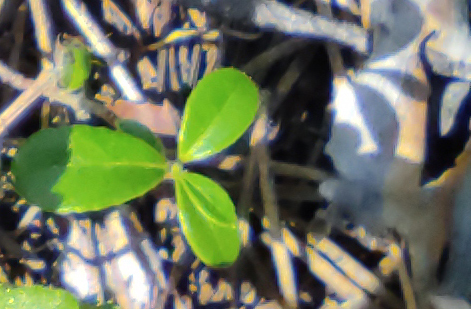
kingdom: Plantae
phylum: Tracheophyta
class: Magnoliopsida
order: Ericales
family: Ericaceae
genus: Vaccinium
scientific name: Vaccinium vitis-idaea
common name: Cowberry
